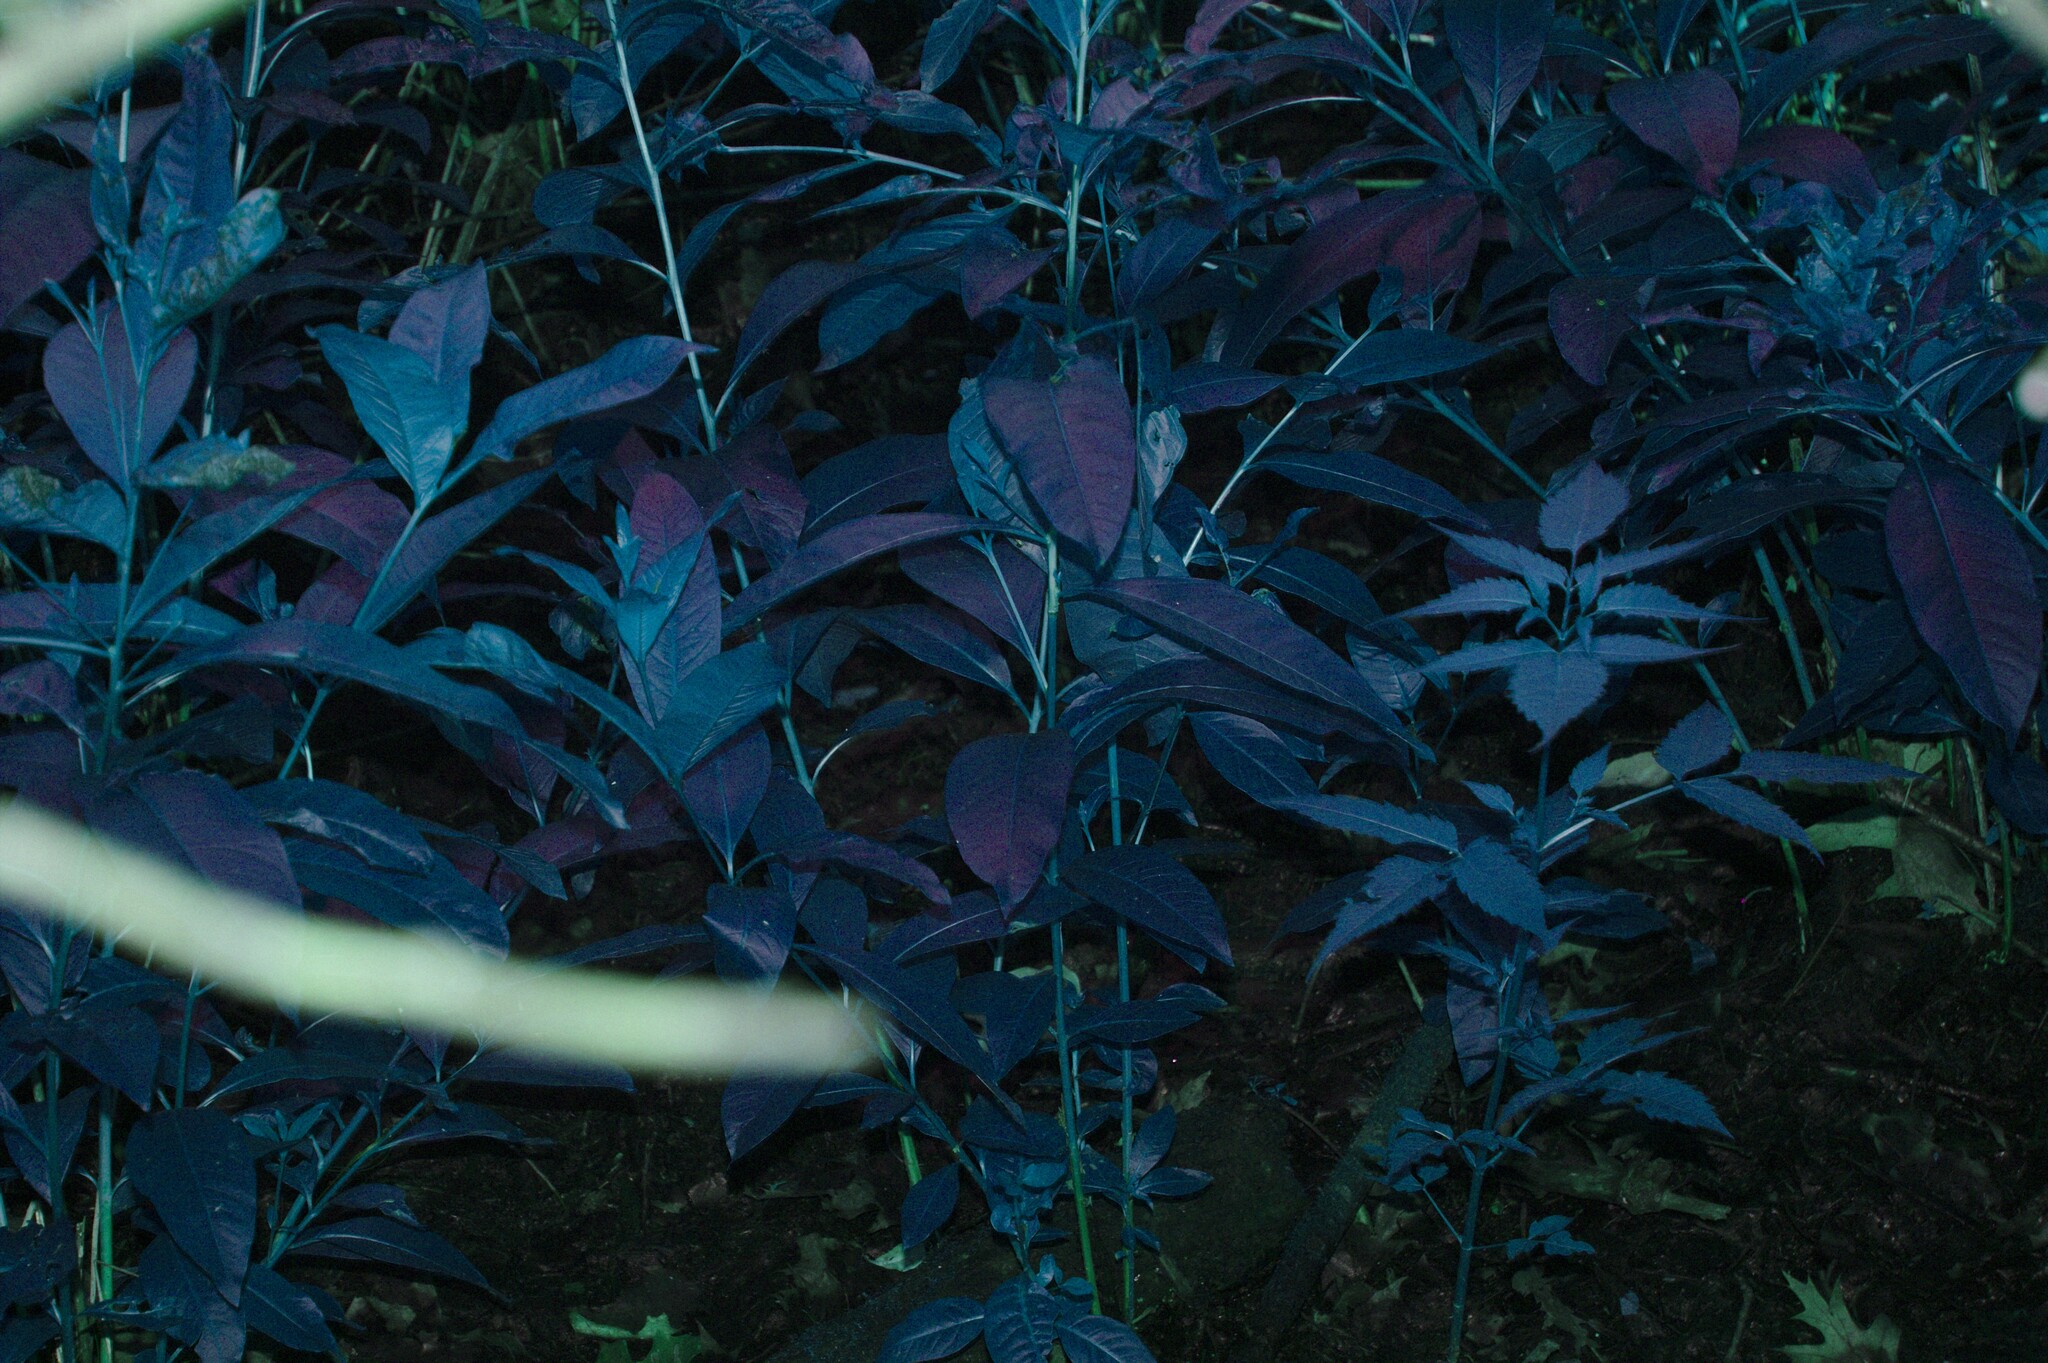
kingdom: Plantae
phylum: Tracheophyta
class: Magnoliopsida
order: Myrtales
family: Lythraceae
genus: Decodon
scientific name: Decodon verticillatus
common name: Hairy swamp loosestrife
